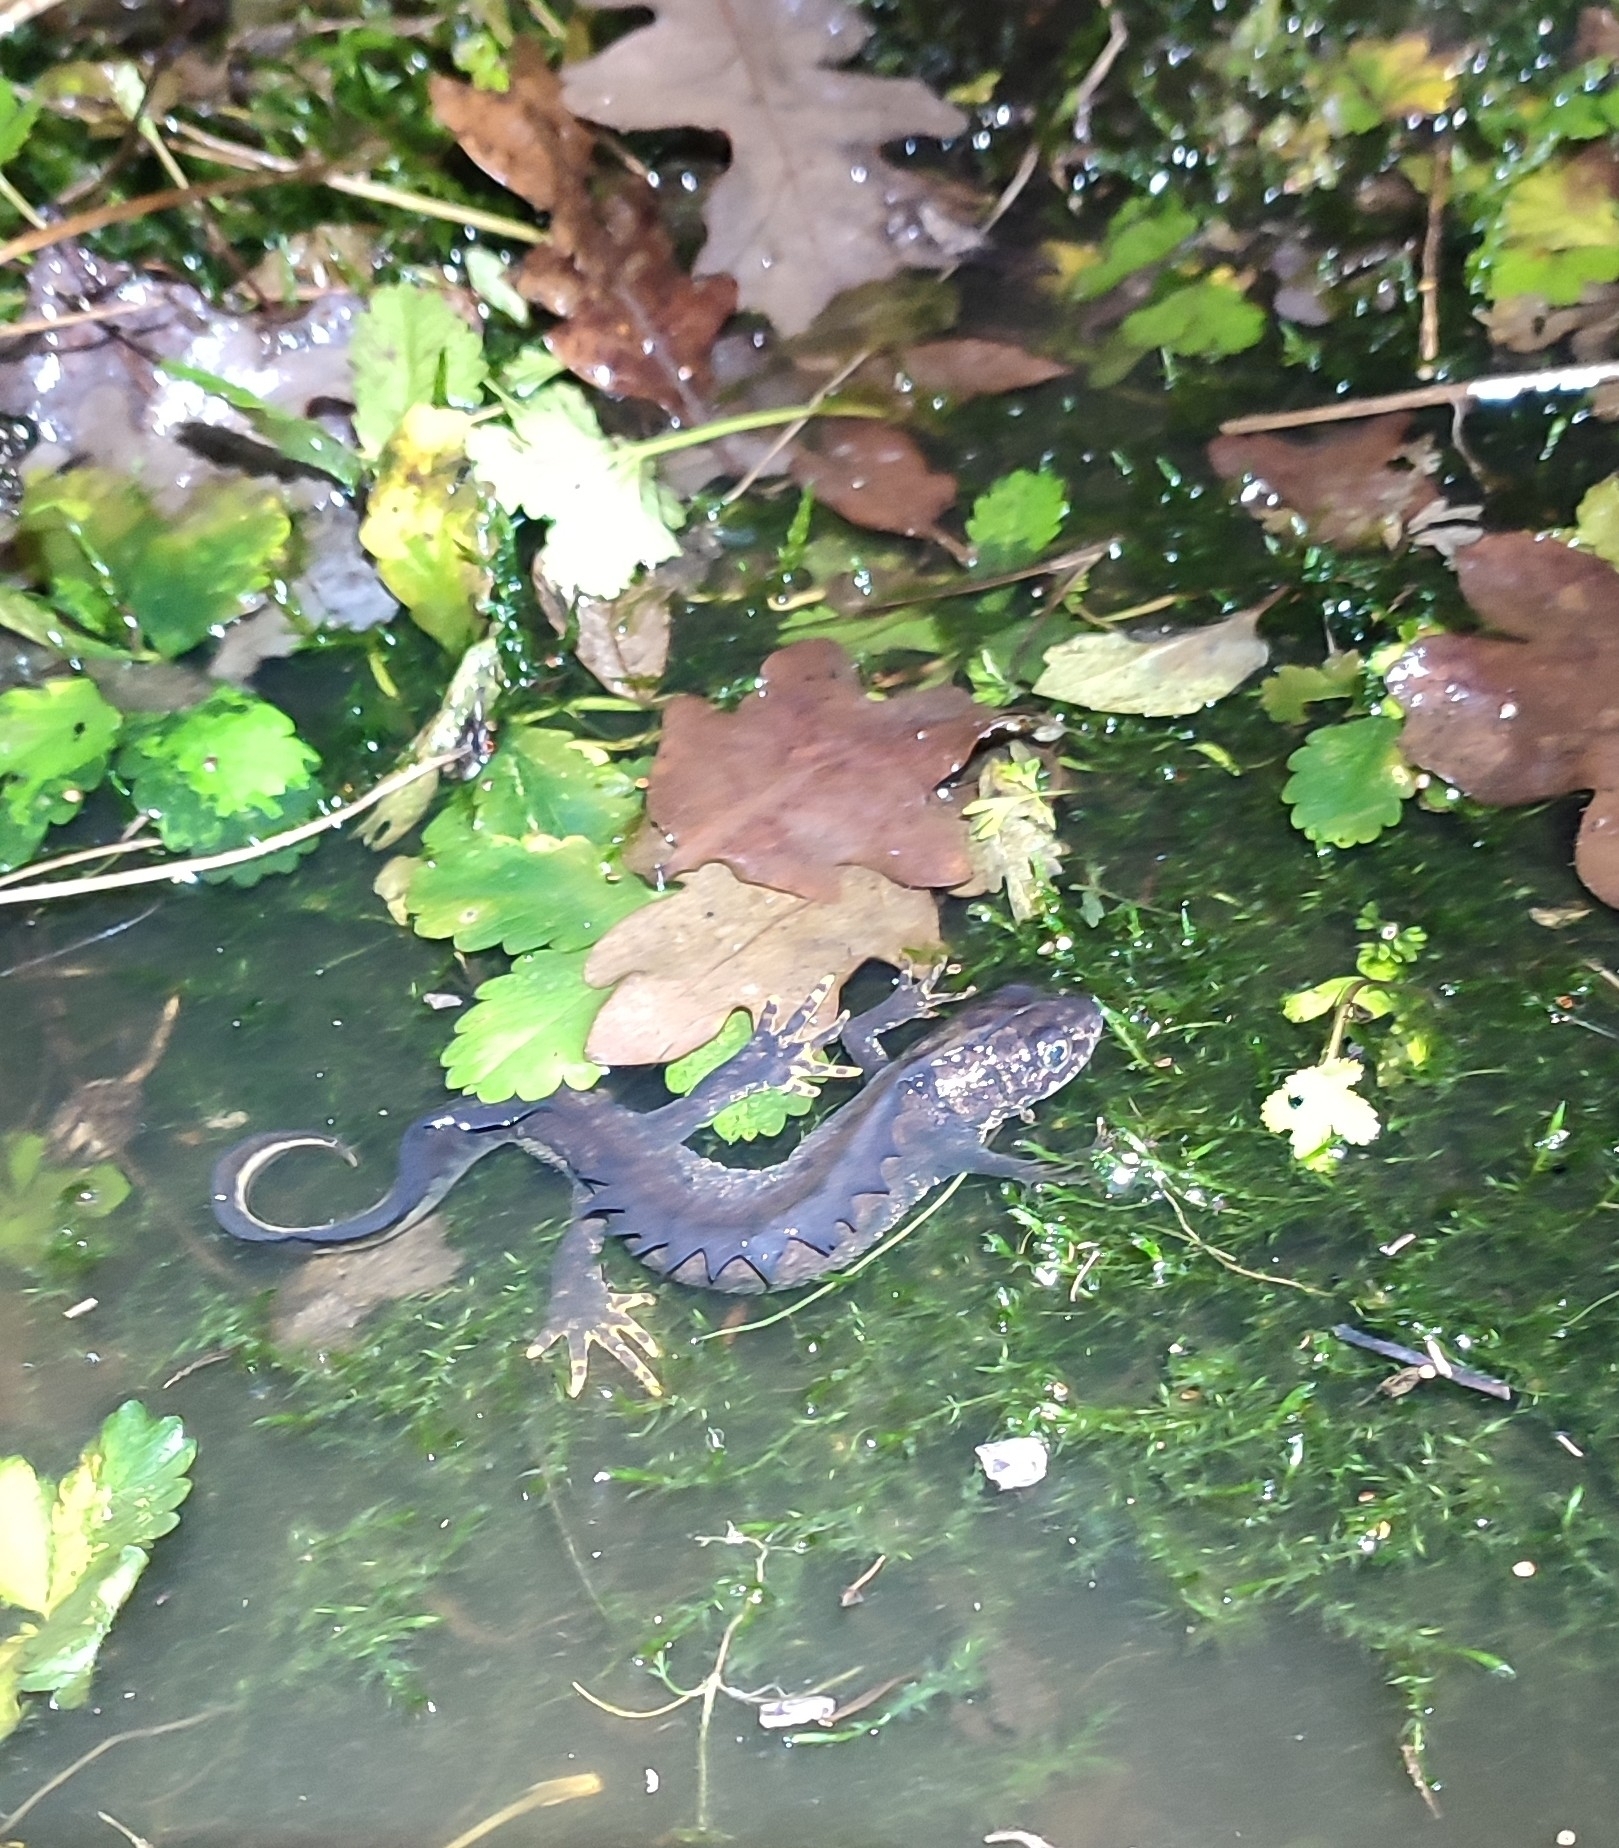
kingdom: Animalia
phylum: Chordata
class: Amphibia
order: Caudata
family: Salamandridae
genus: Triturus
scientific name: Triturus cristatus
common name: Crested newt
